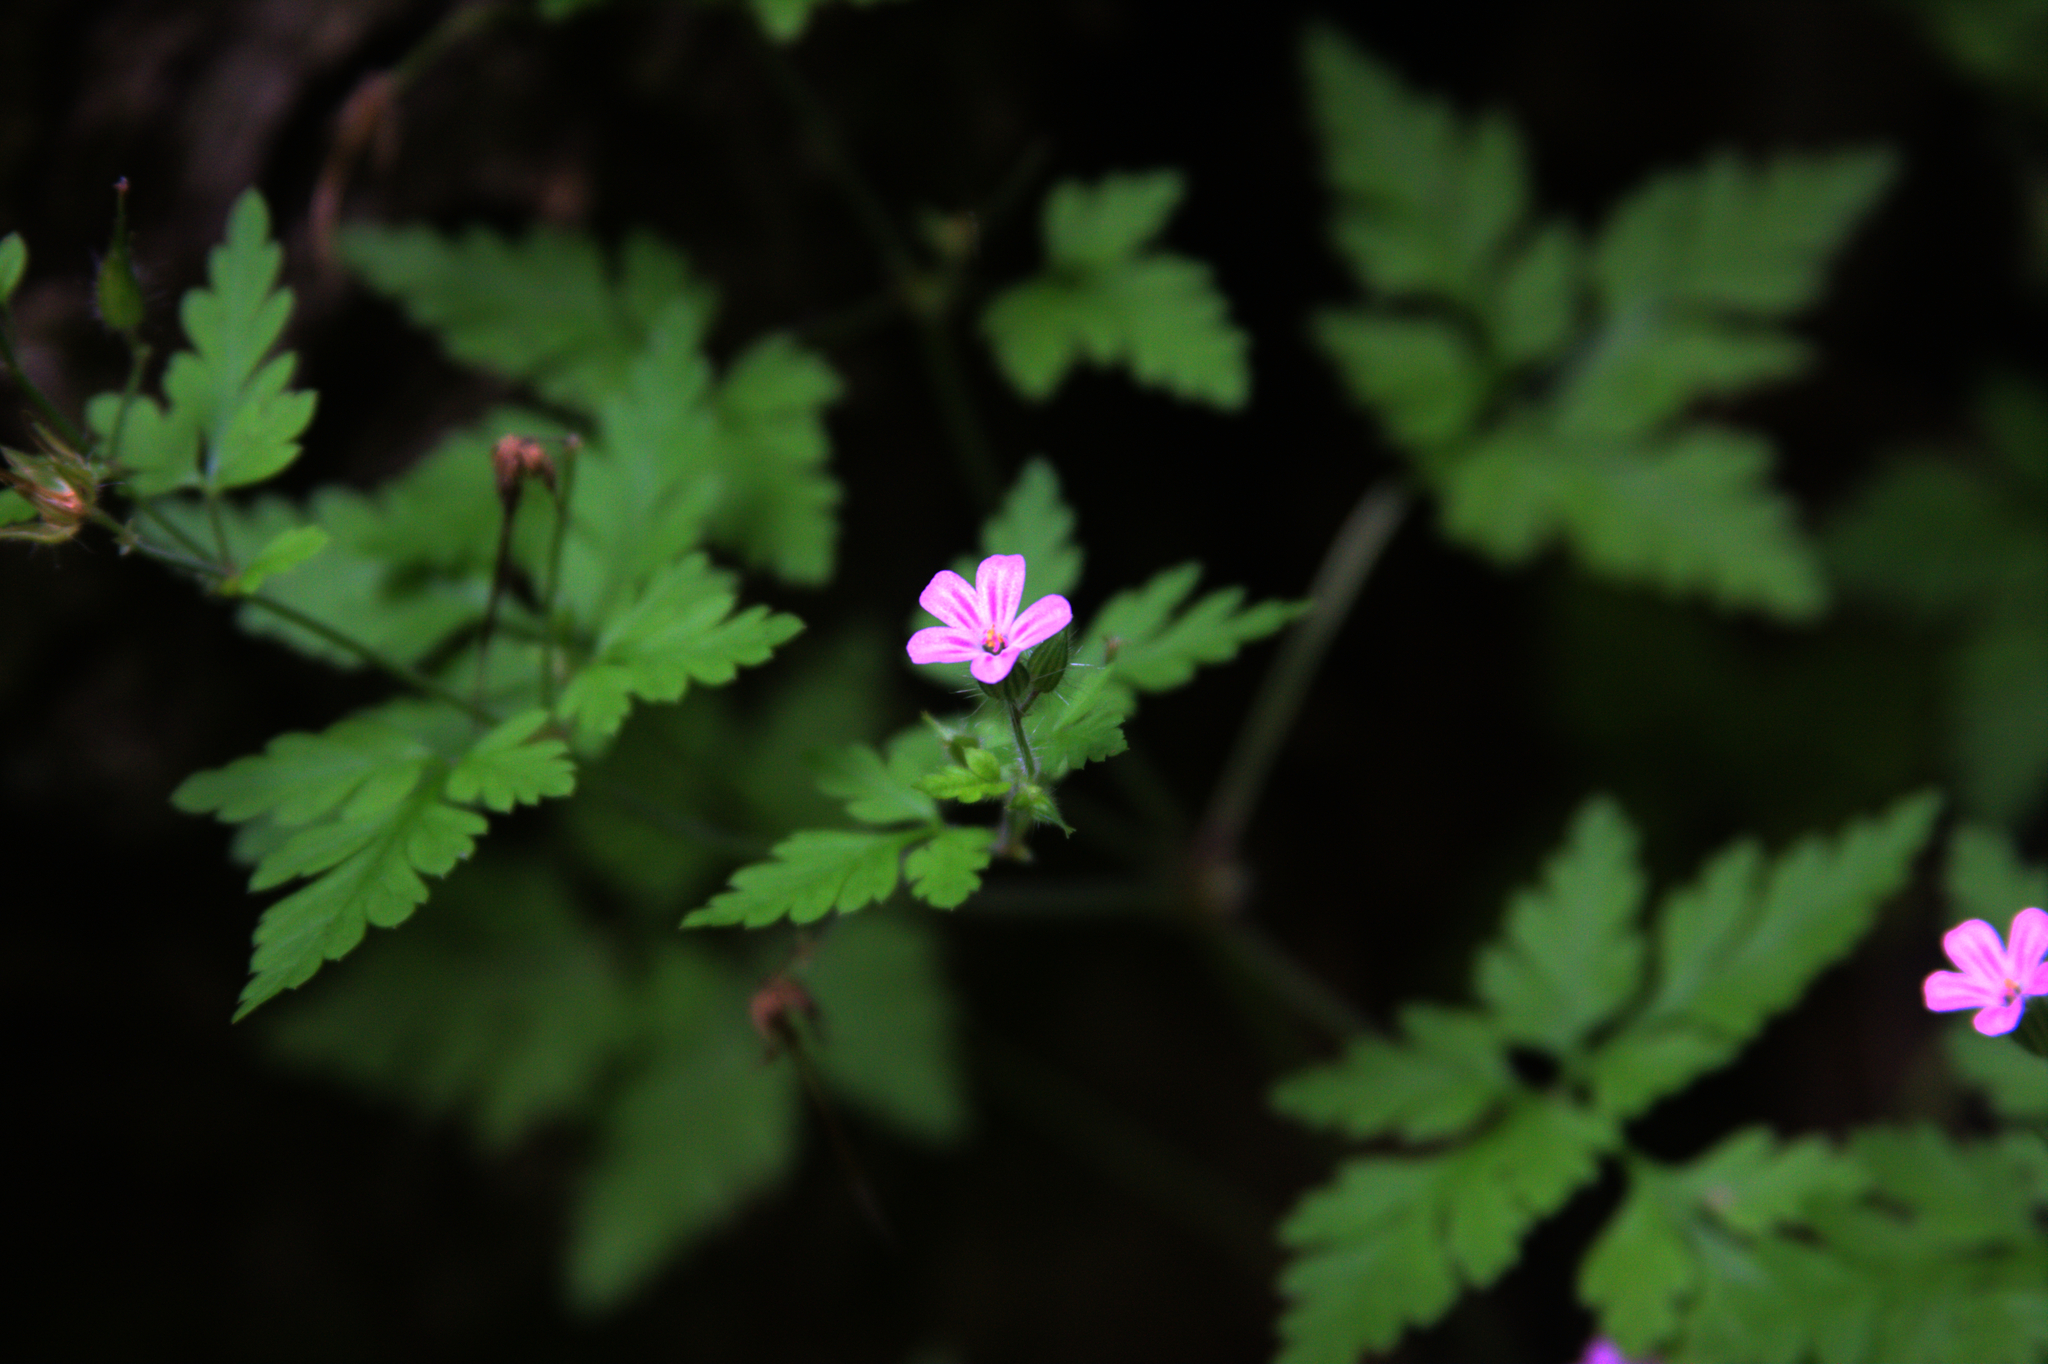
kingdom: Plantae
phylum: Tracheophyta
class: Magnoliopsida
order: Geraniales
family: Geraniaceae
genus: Geranium
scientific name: Geranium robertianum
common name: Herb-robert
